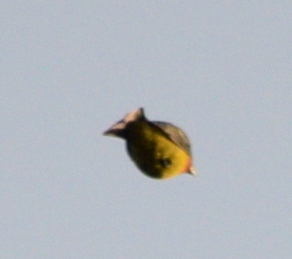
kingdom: Animalia
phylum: Chordata
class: Aves
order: Passeriformes
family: Cardinalidae
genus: Piranga
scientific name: Piranga ludoviciana
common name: Western tanager
